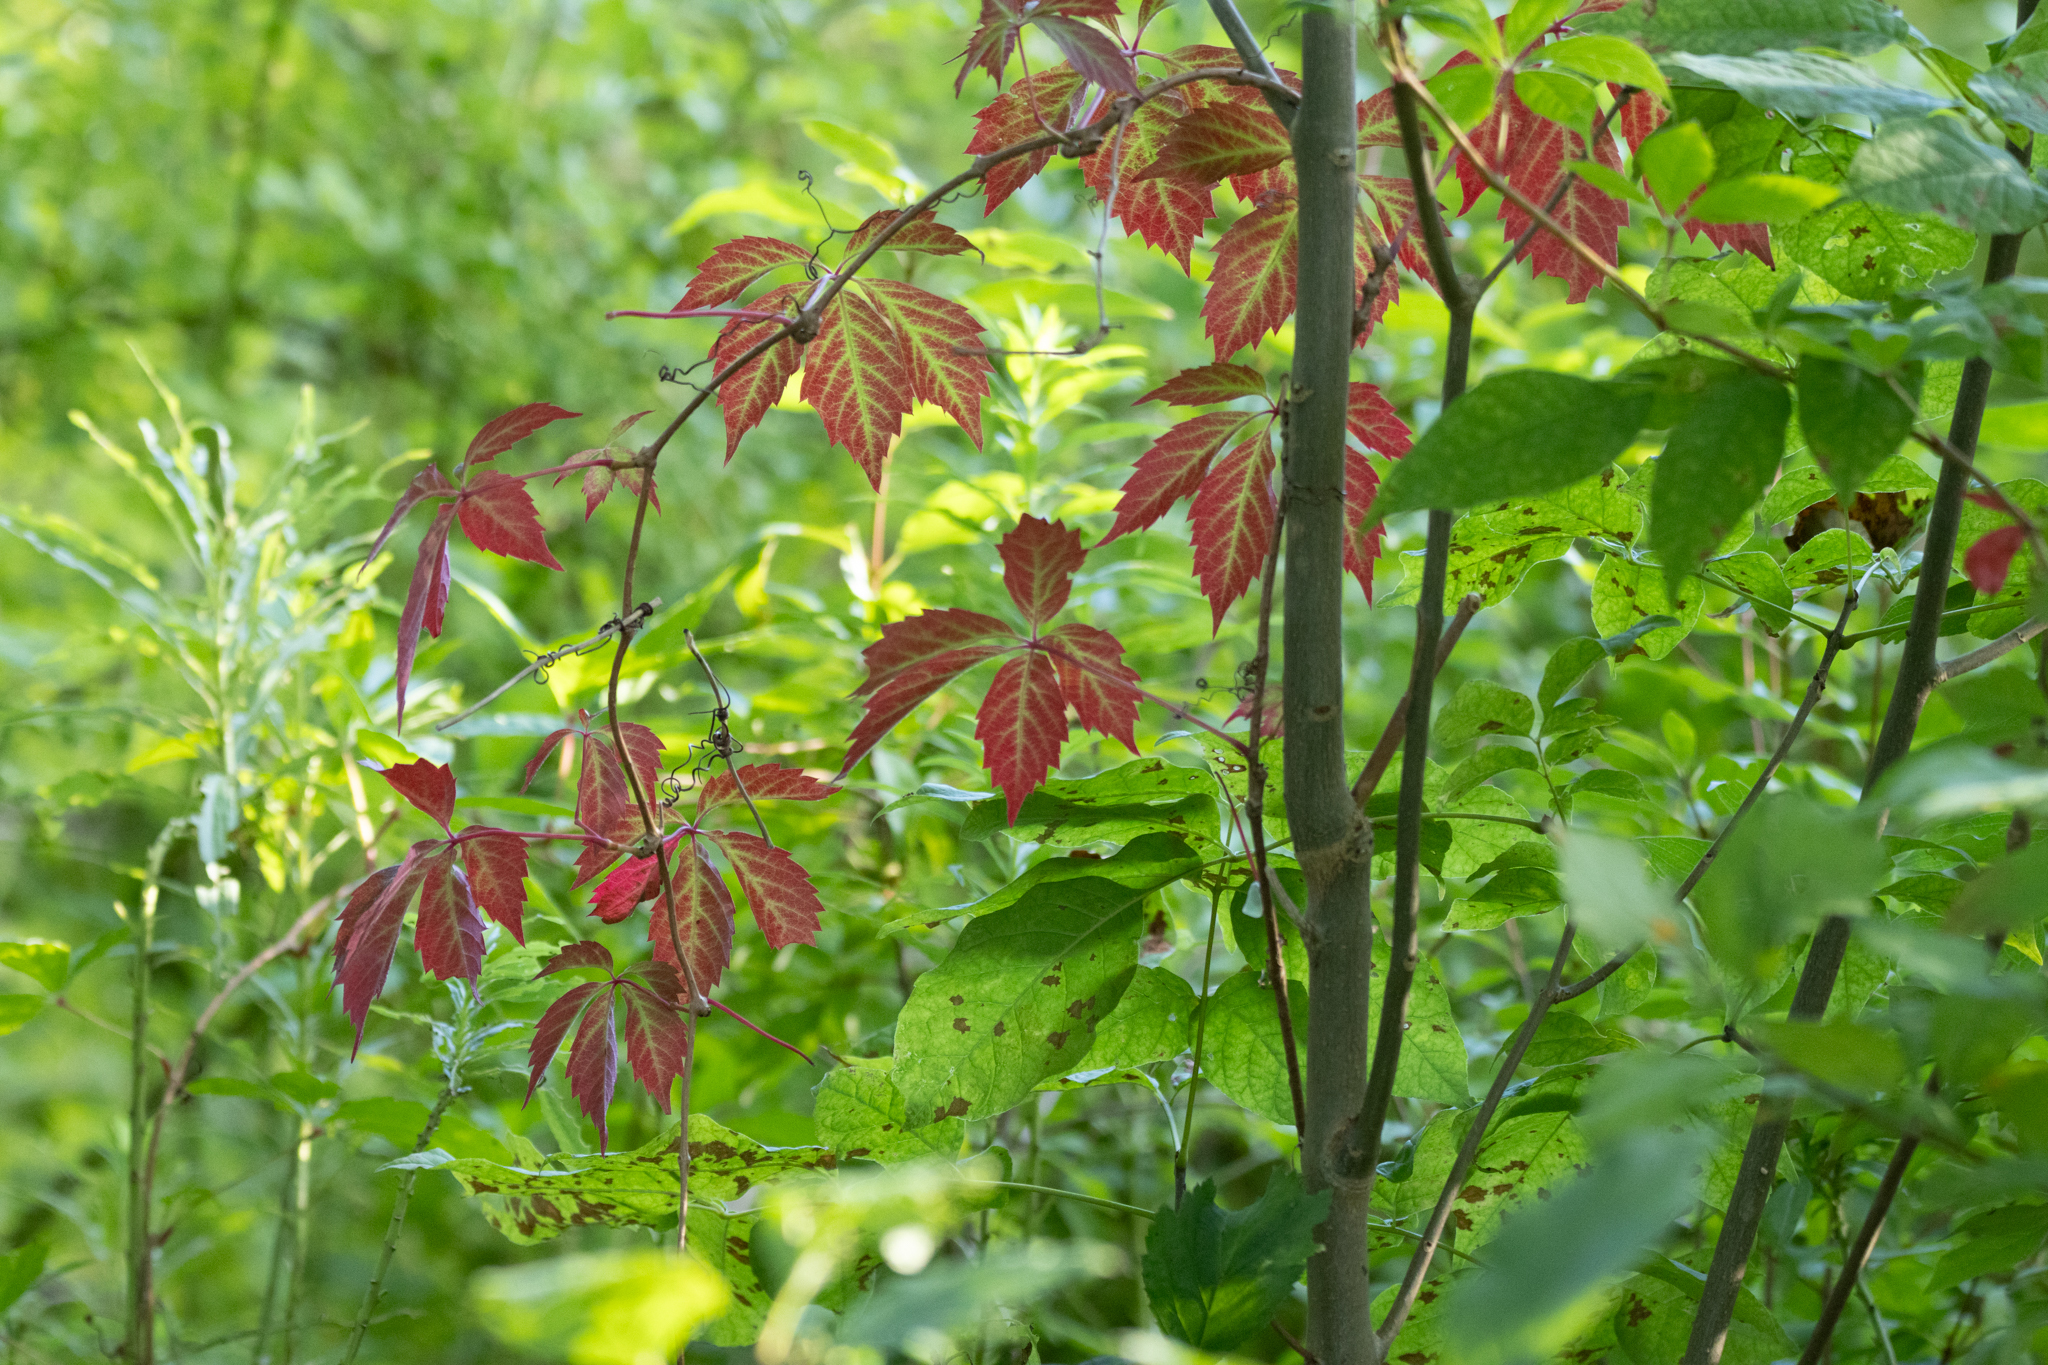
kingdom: Plantae
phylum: Tracheophyta
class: Magnoliopsida
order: Vitales
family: Vitaceae
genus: Parthenocissus
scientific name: Parthenocissus quinquefolia
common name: Virginia-creeper
